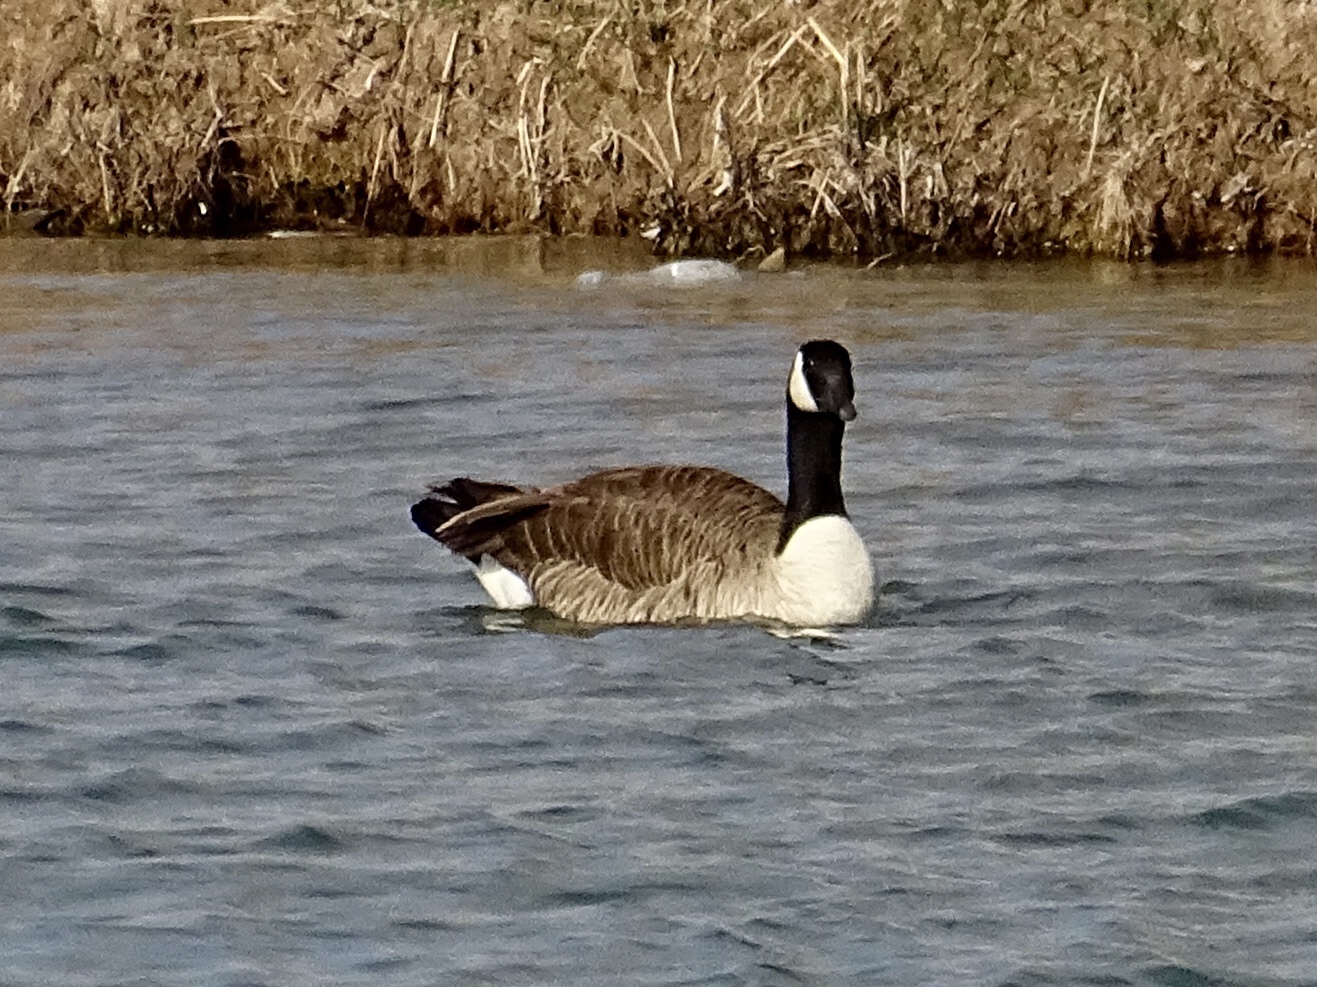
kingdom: Animalia
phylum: Chordata
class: Aves
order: Anseriformes
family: Anatidae
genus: Branta
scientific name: Branta canadensis
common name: Canada goose
